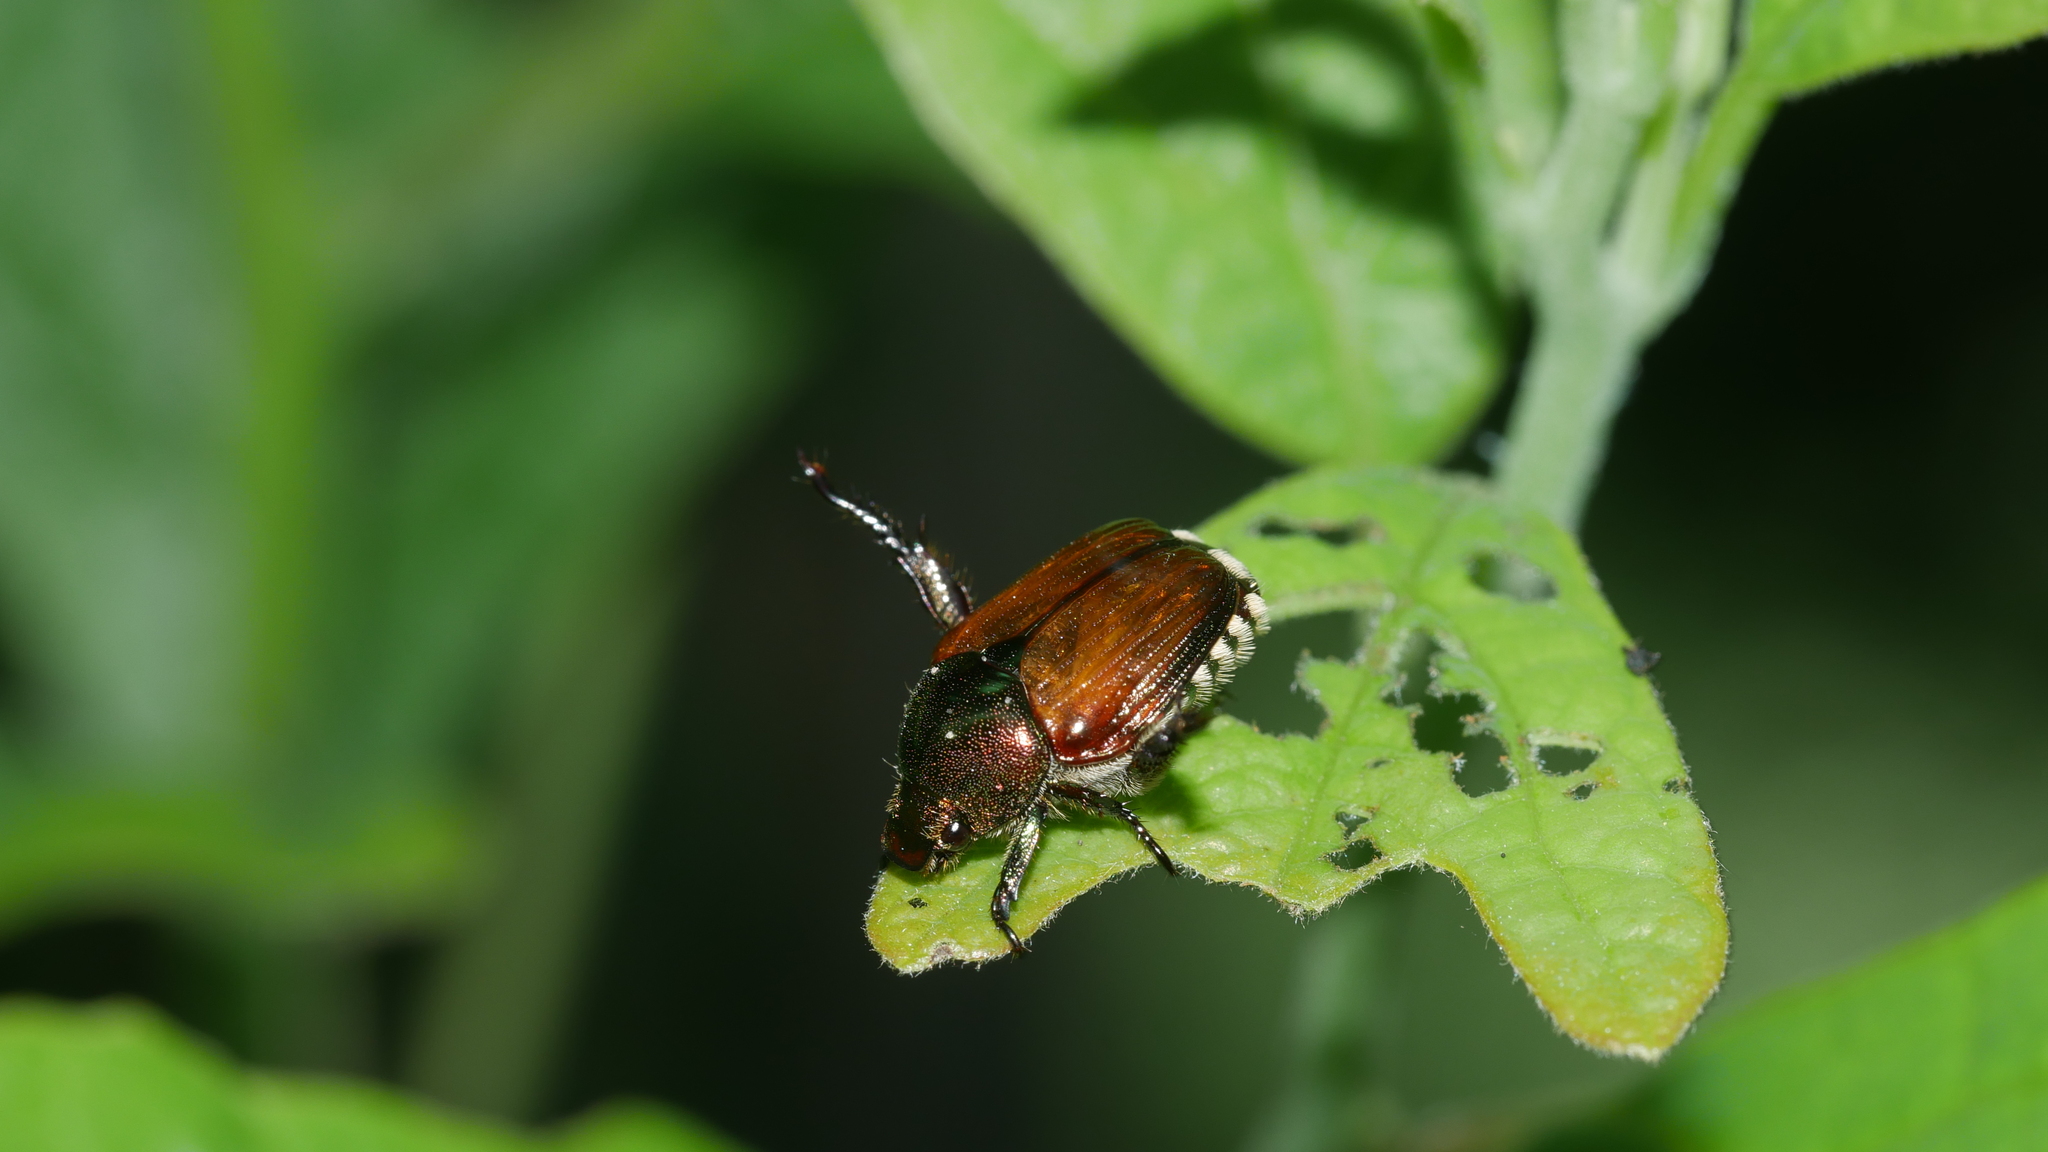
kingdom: Animalia
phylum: Arthropoda
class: Insecta
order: Coleoptera
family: Scarabaeidae
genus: Popillia
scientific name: Popillia japonica
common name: Japanese beetle
